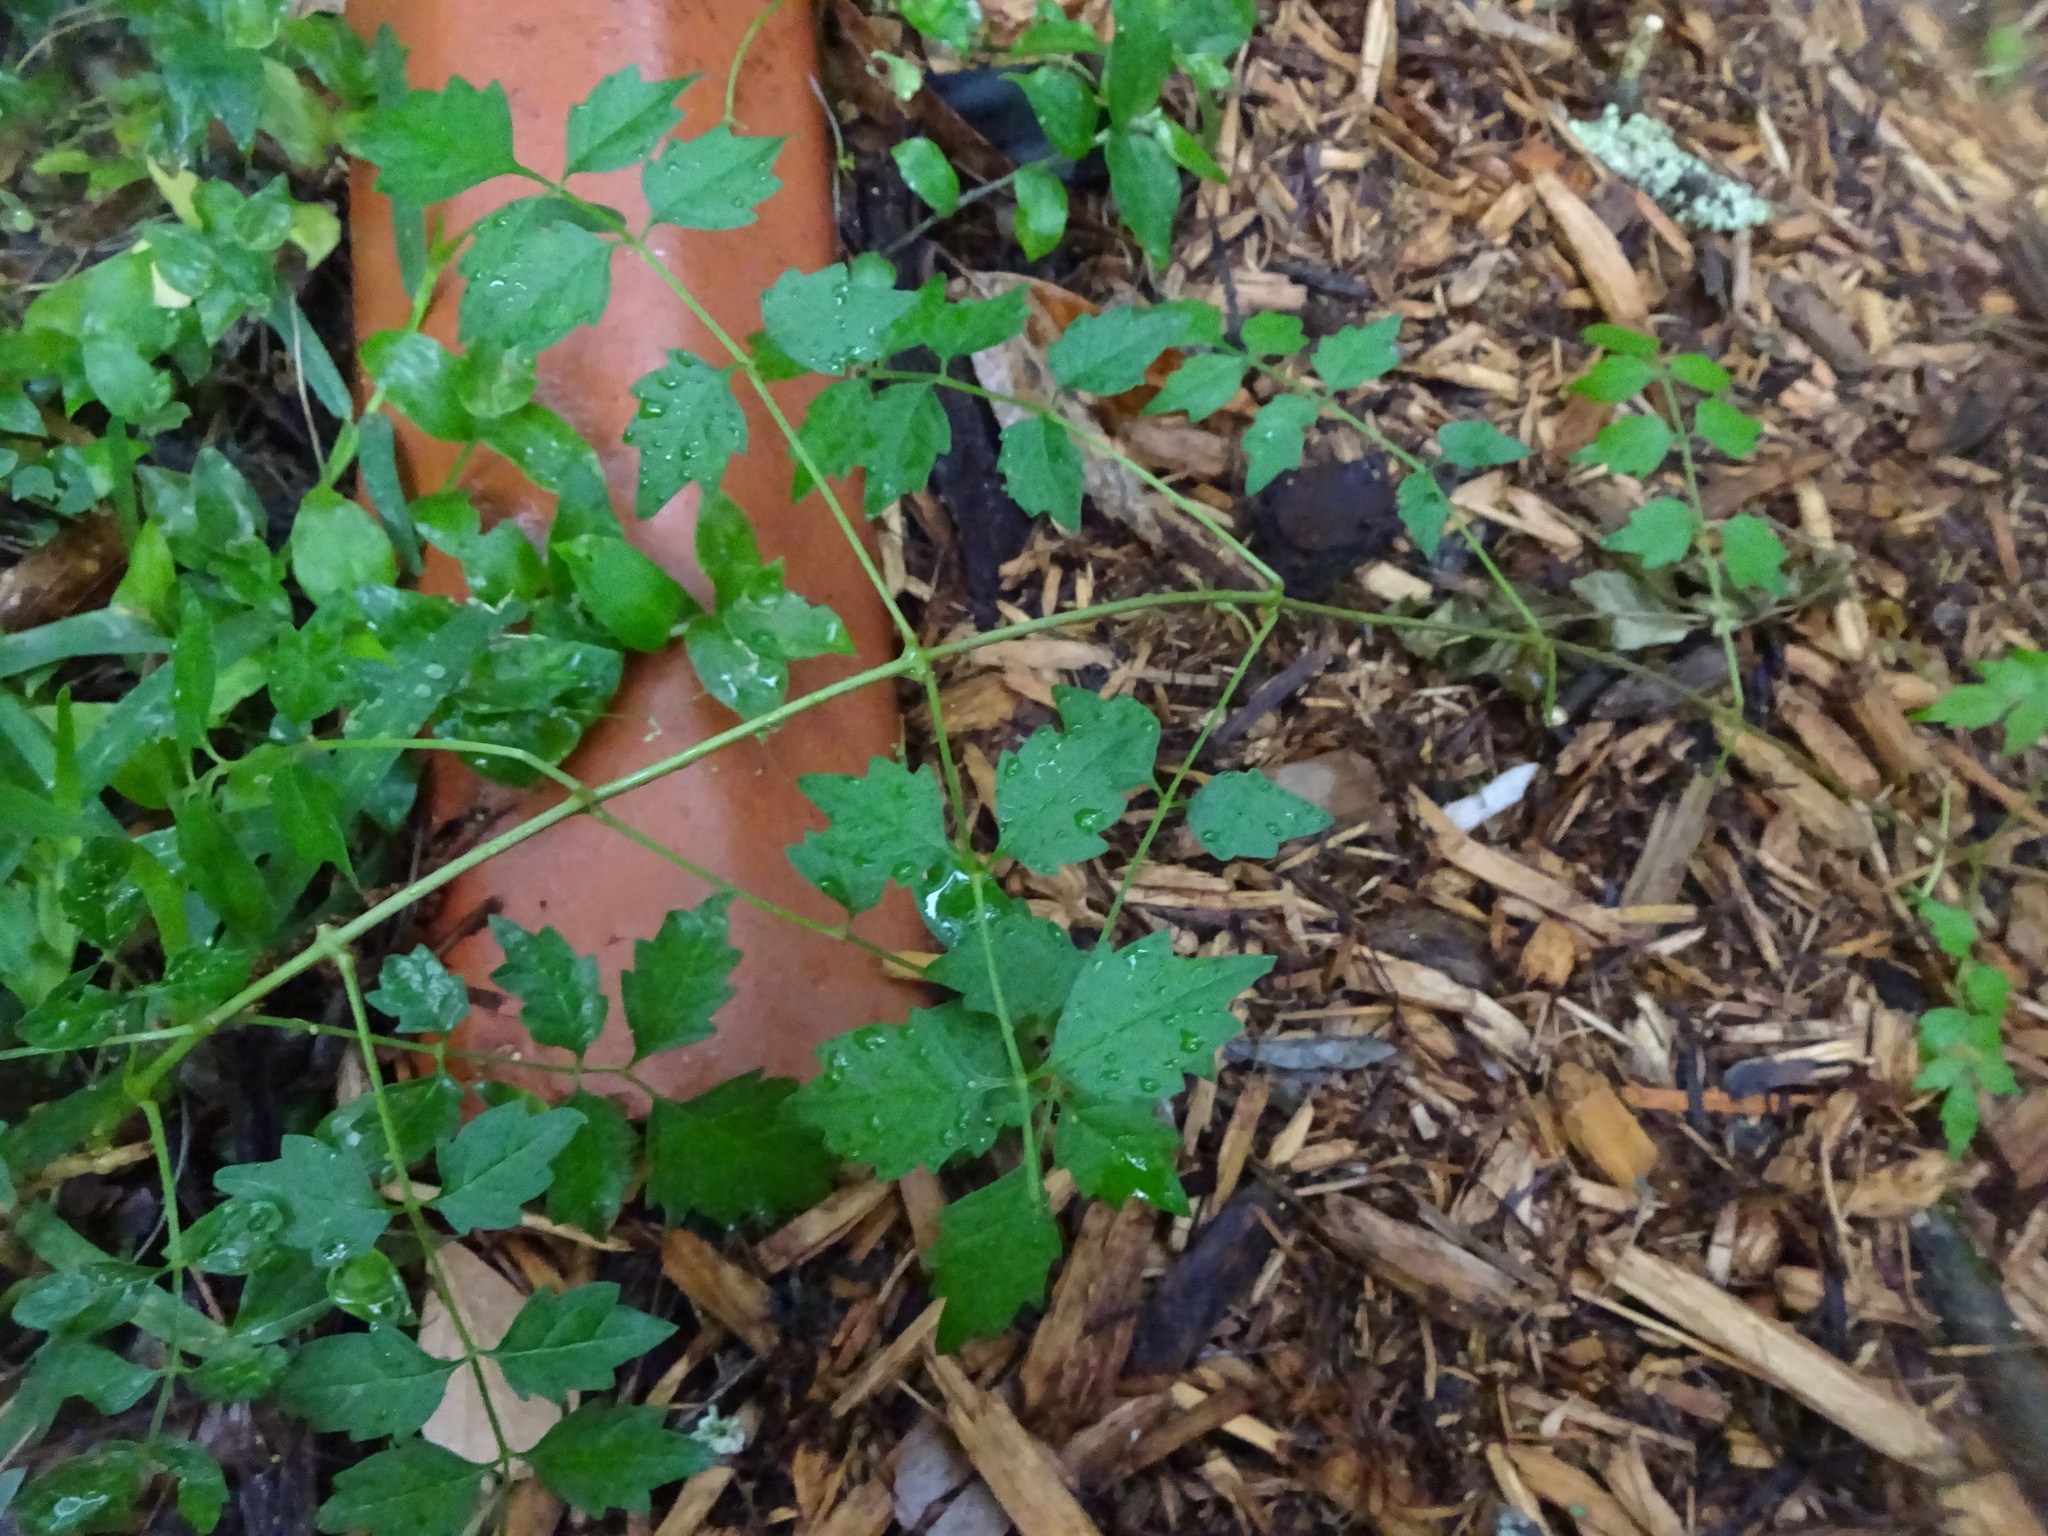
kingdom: Plantae
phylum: Tracheophyta
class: Magnoliopsida
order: Lamiales
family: Bignoniaceae
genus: Campsis
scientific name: Campsis radicans
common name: Trumpet-creeper
